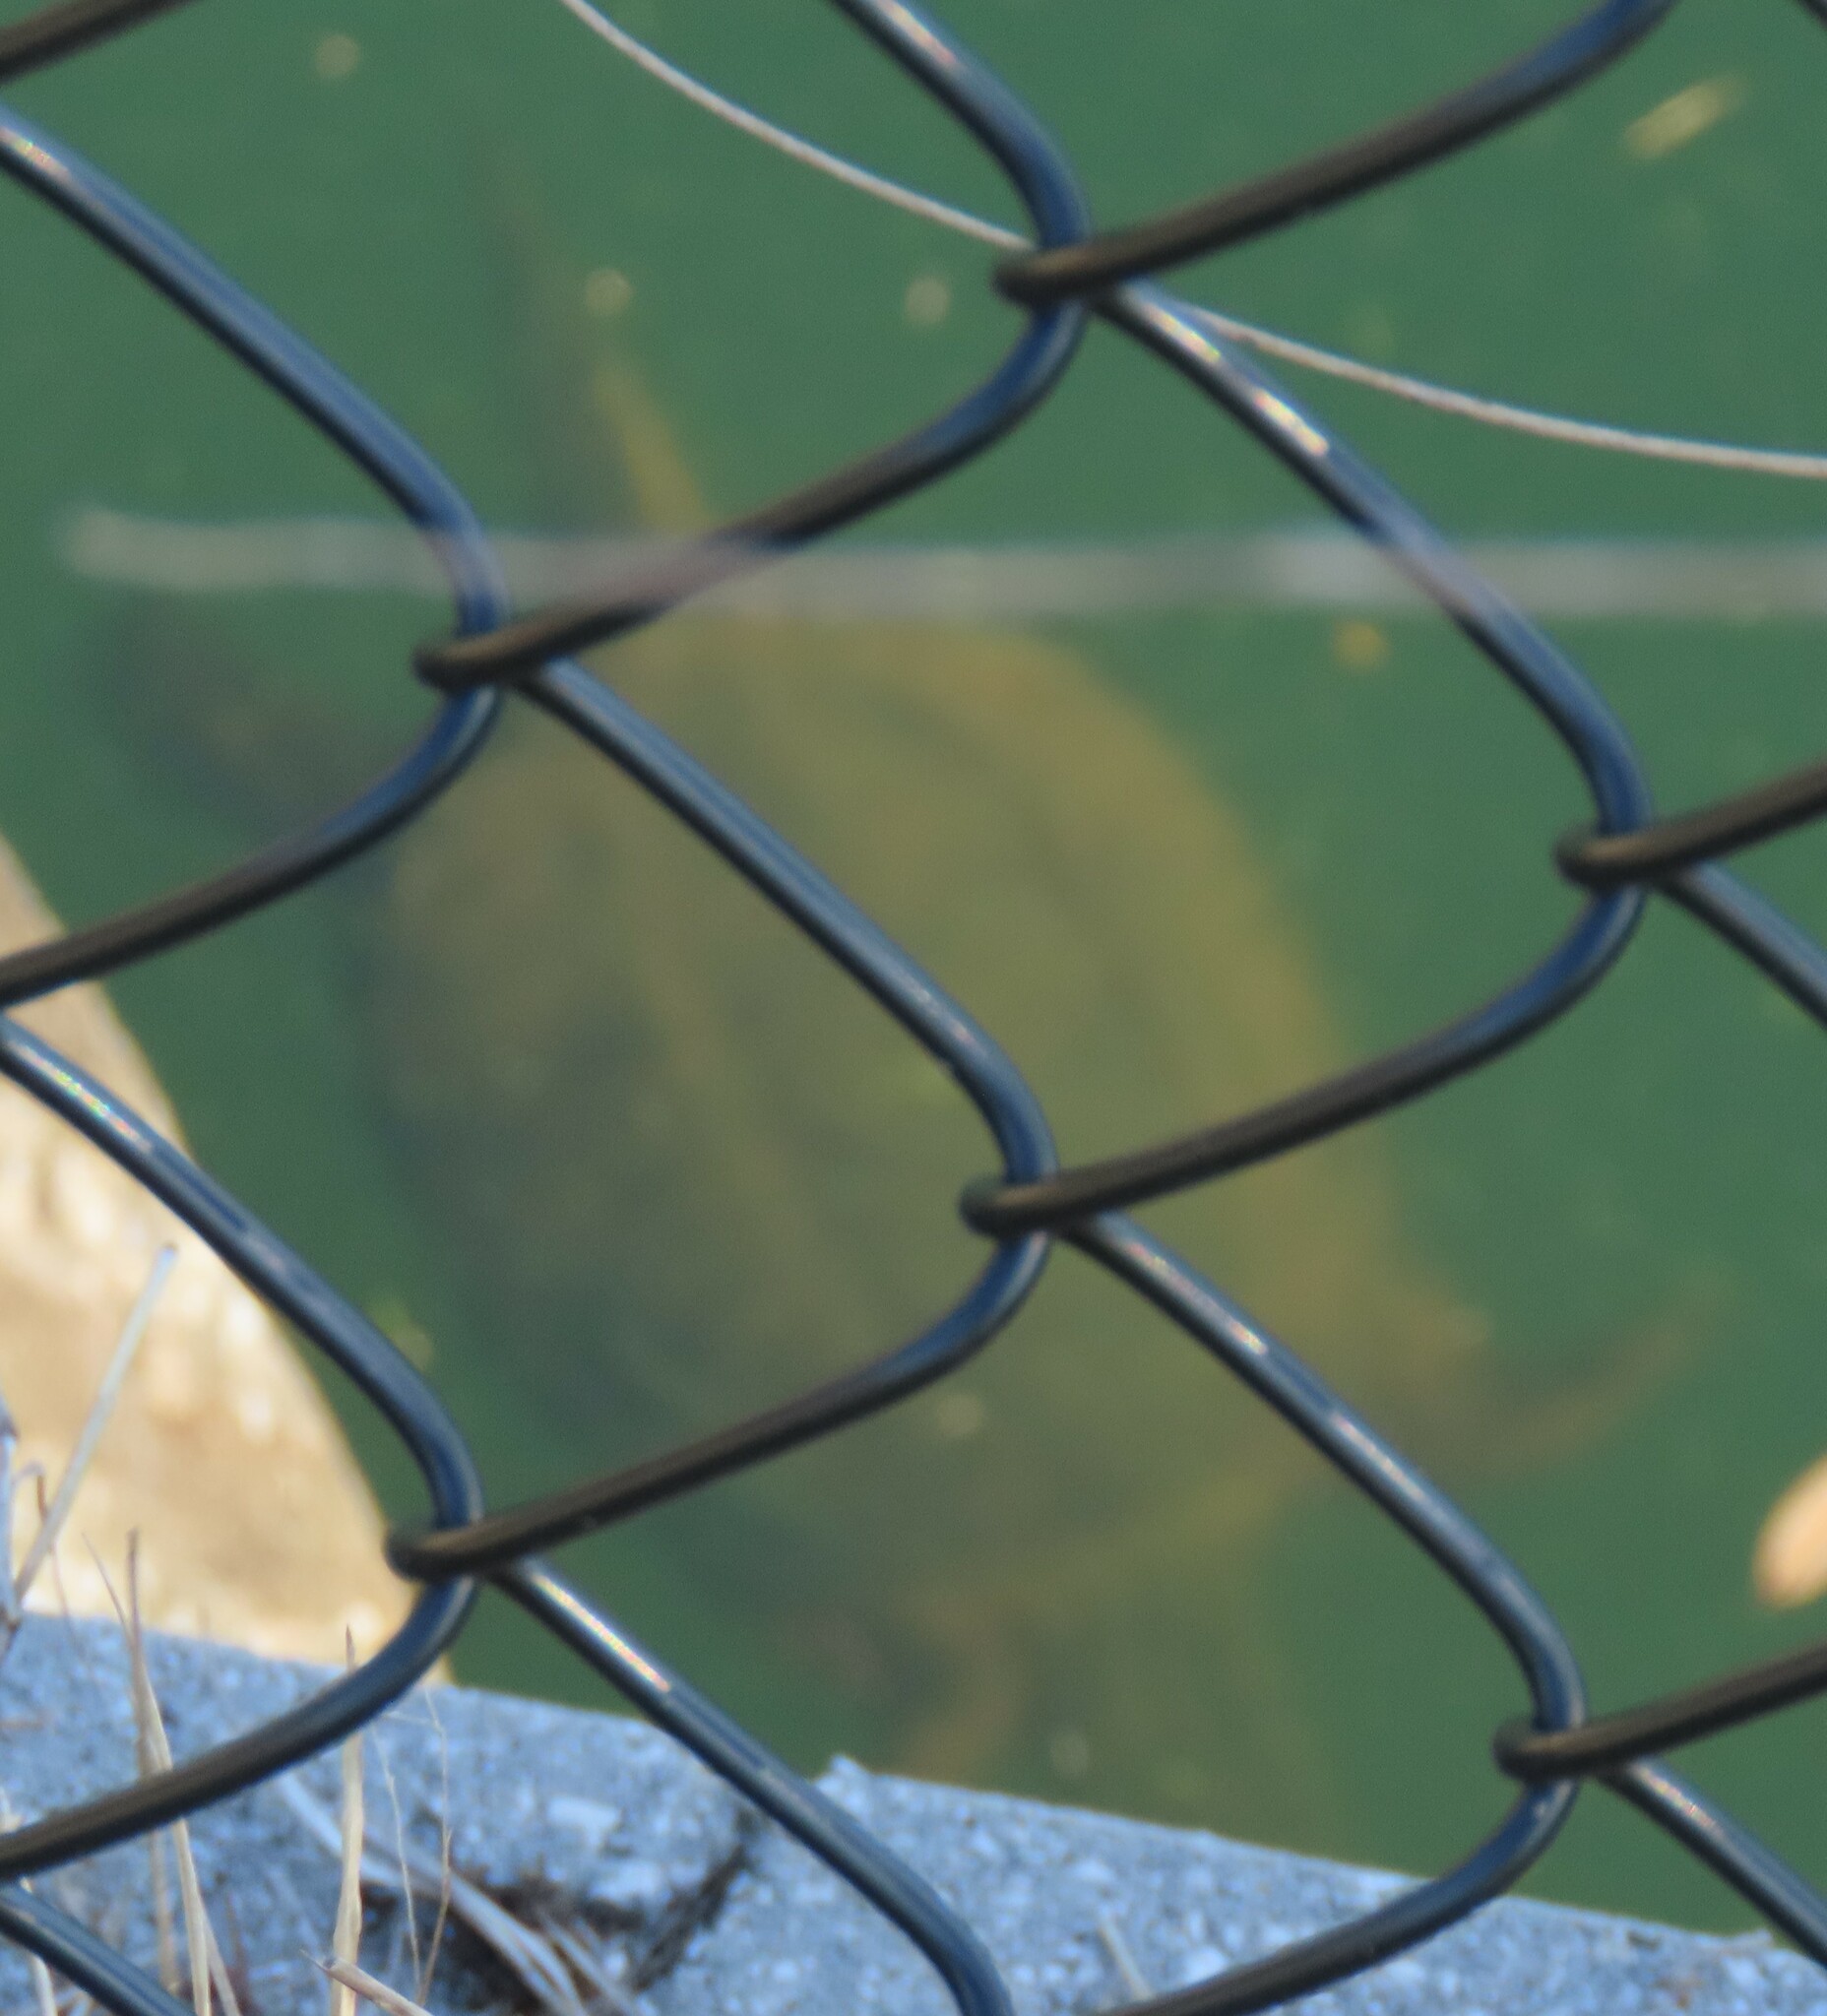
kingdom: Animalia
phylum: Chordata
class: Testudines
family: Chelydridae
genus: Chelydra
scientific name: Chelydra serpentina
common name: Common snapping turtle
